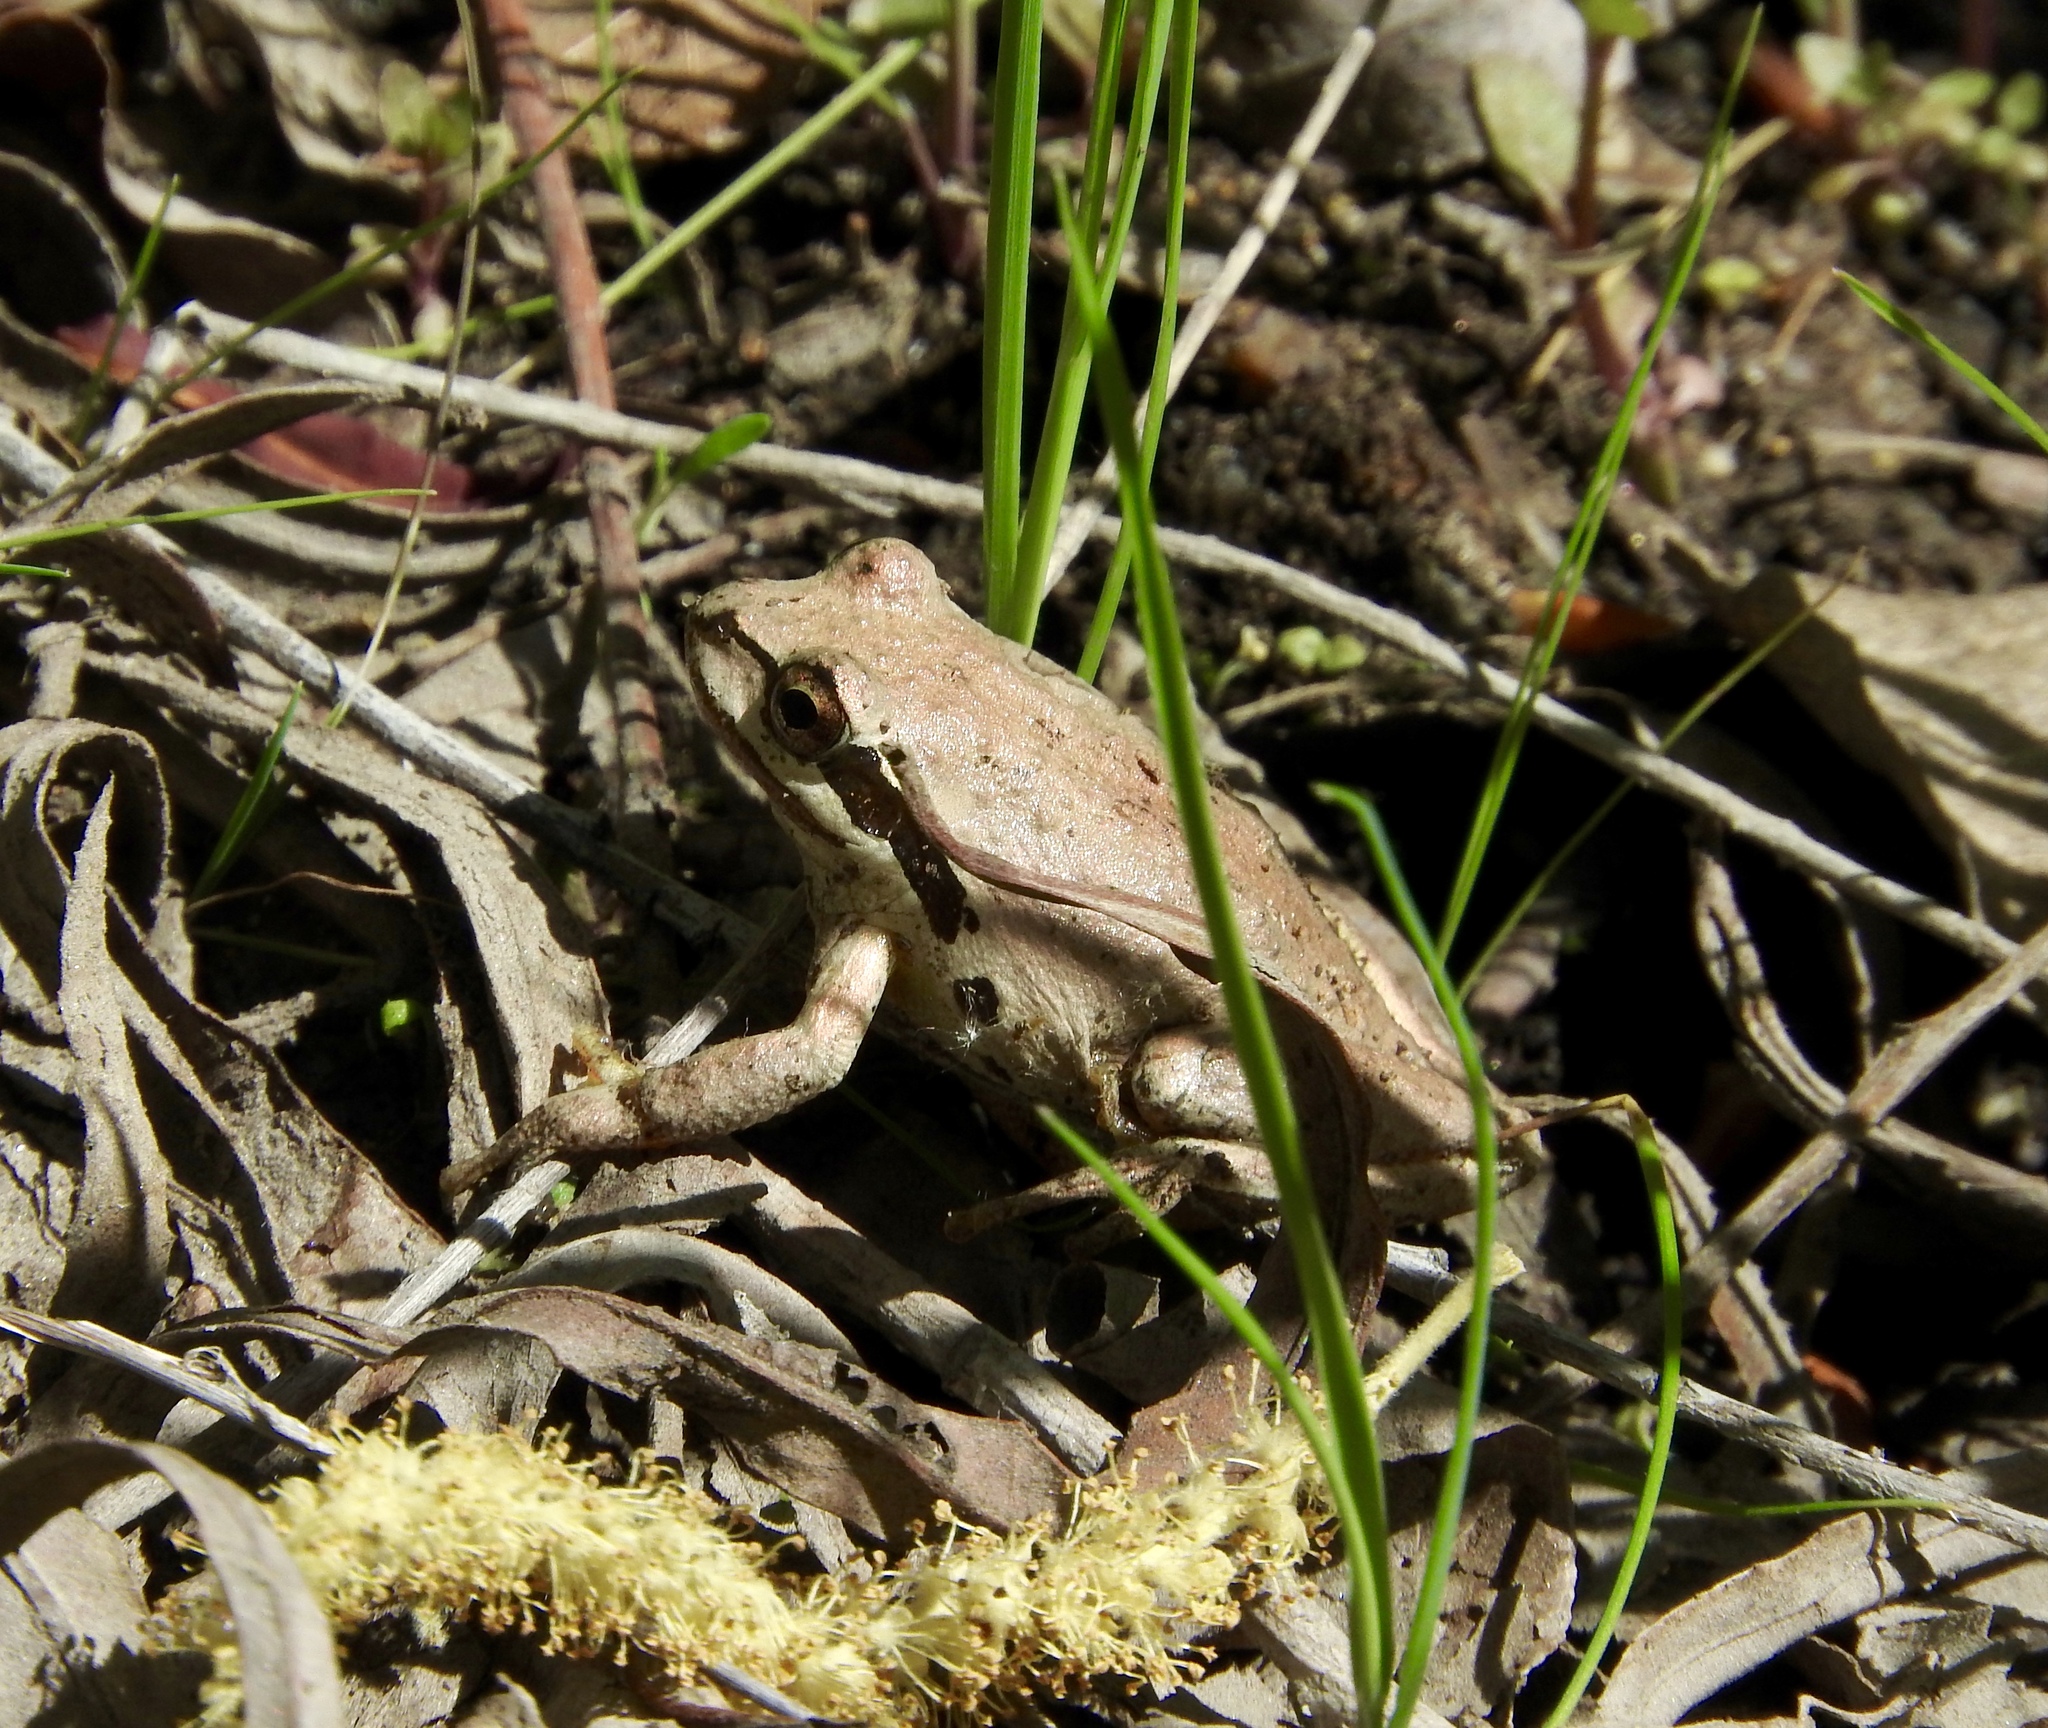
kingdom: Animalia
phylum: Chordata
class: Amphibia
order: Anura
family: Hylidae
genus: Pseudacris
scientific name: Pseudacris regilla
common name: Pacific chorus frog
